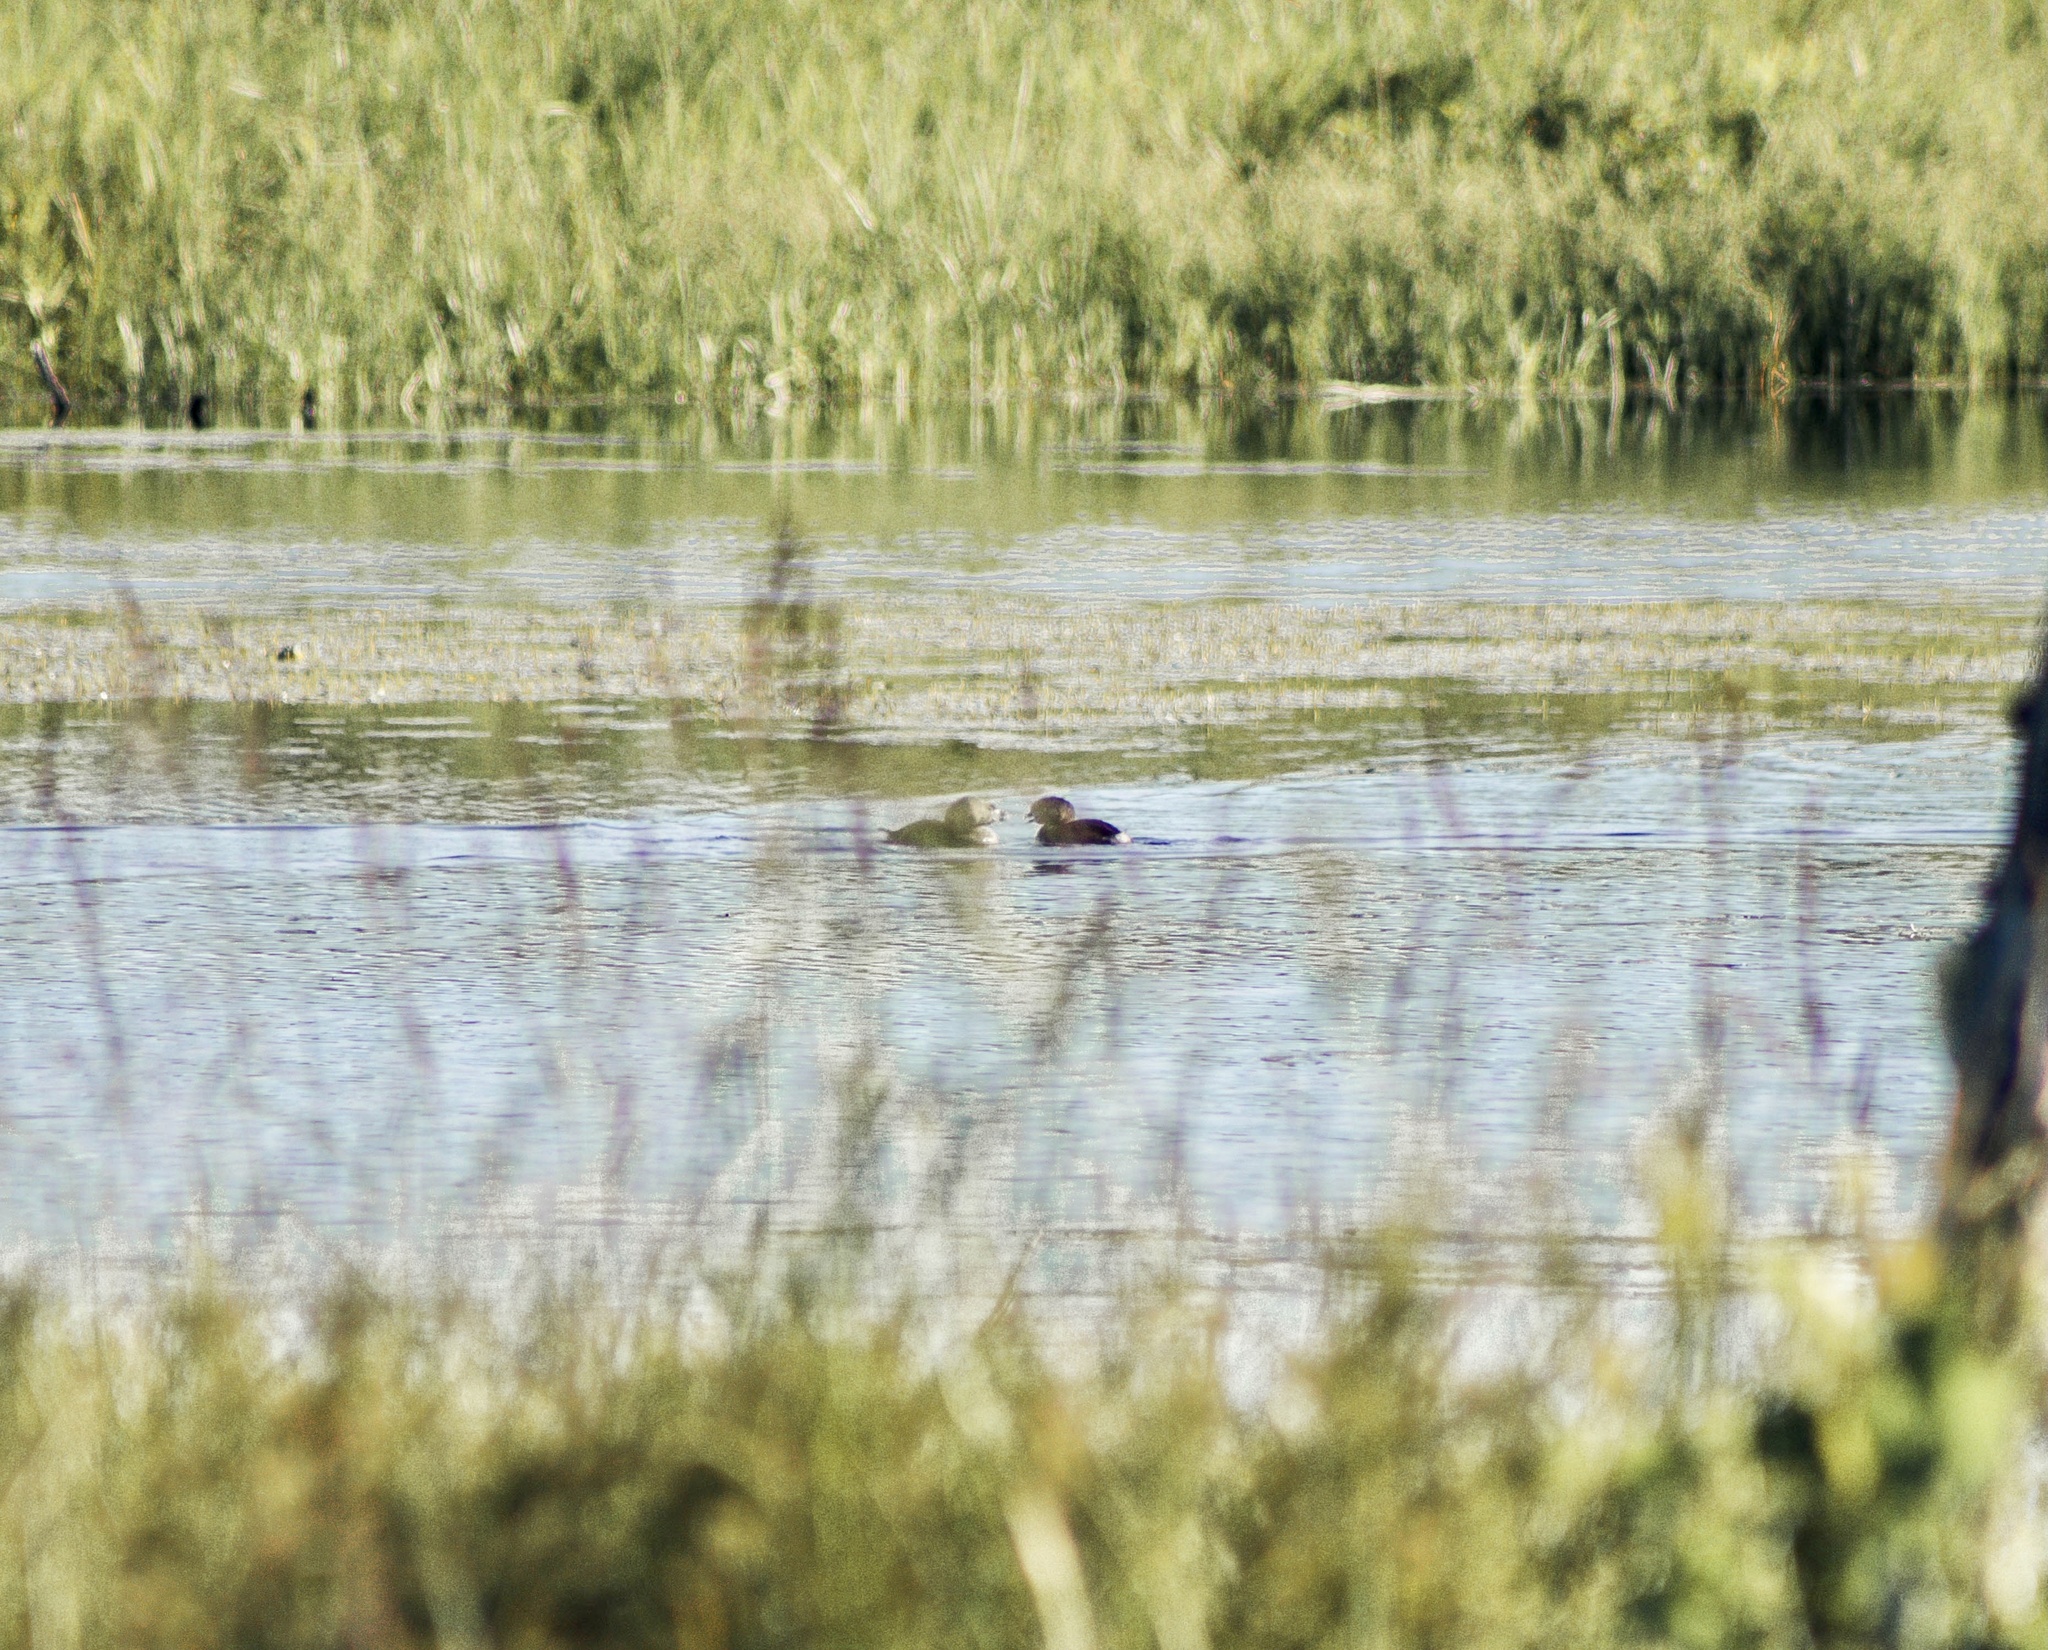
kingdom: Animalia
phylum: Chordata
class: Aves
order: Podicipediformes
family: Podicipedidae
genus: Podilymbus
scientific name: Podilymbus podiceps
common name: Pied-billed grebe
